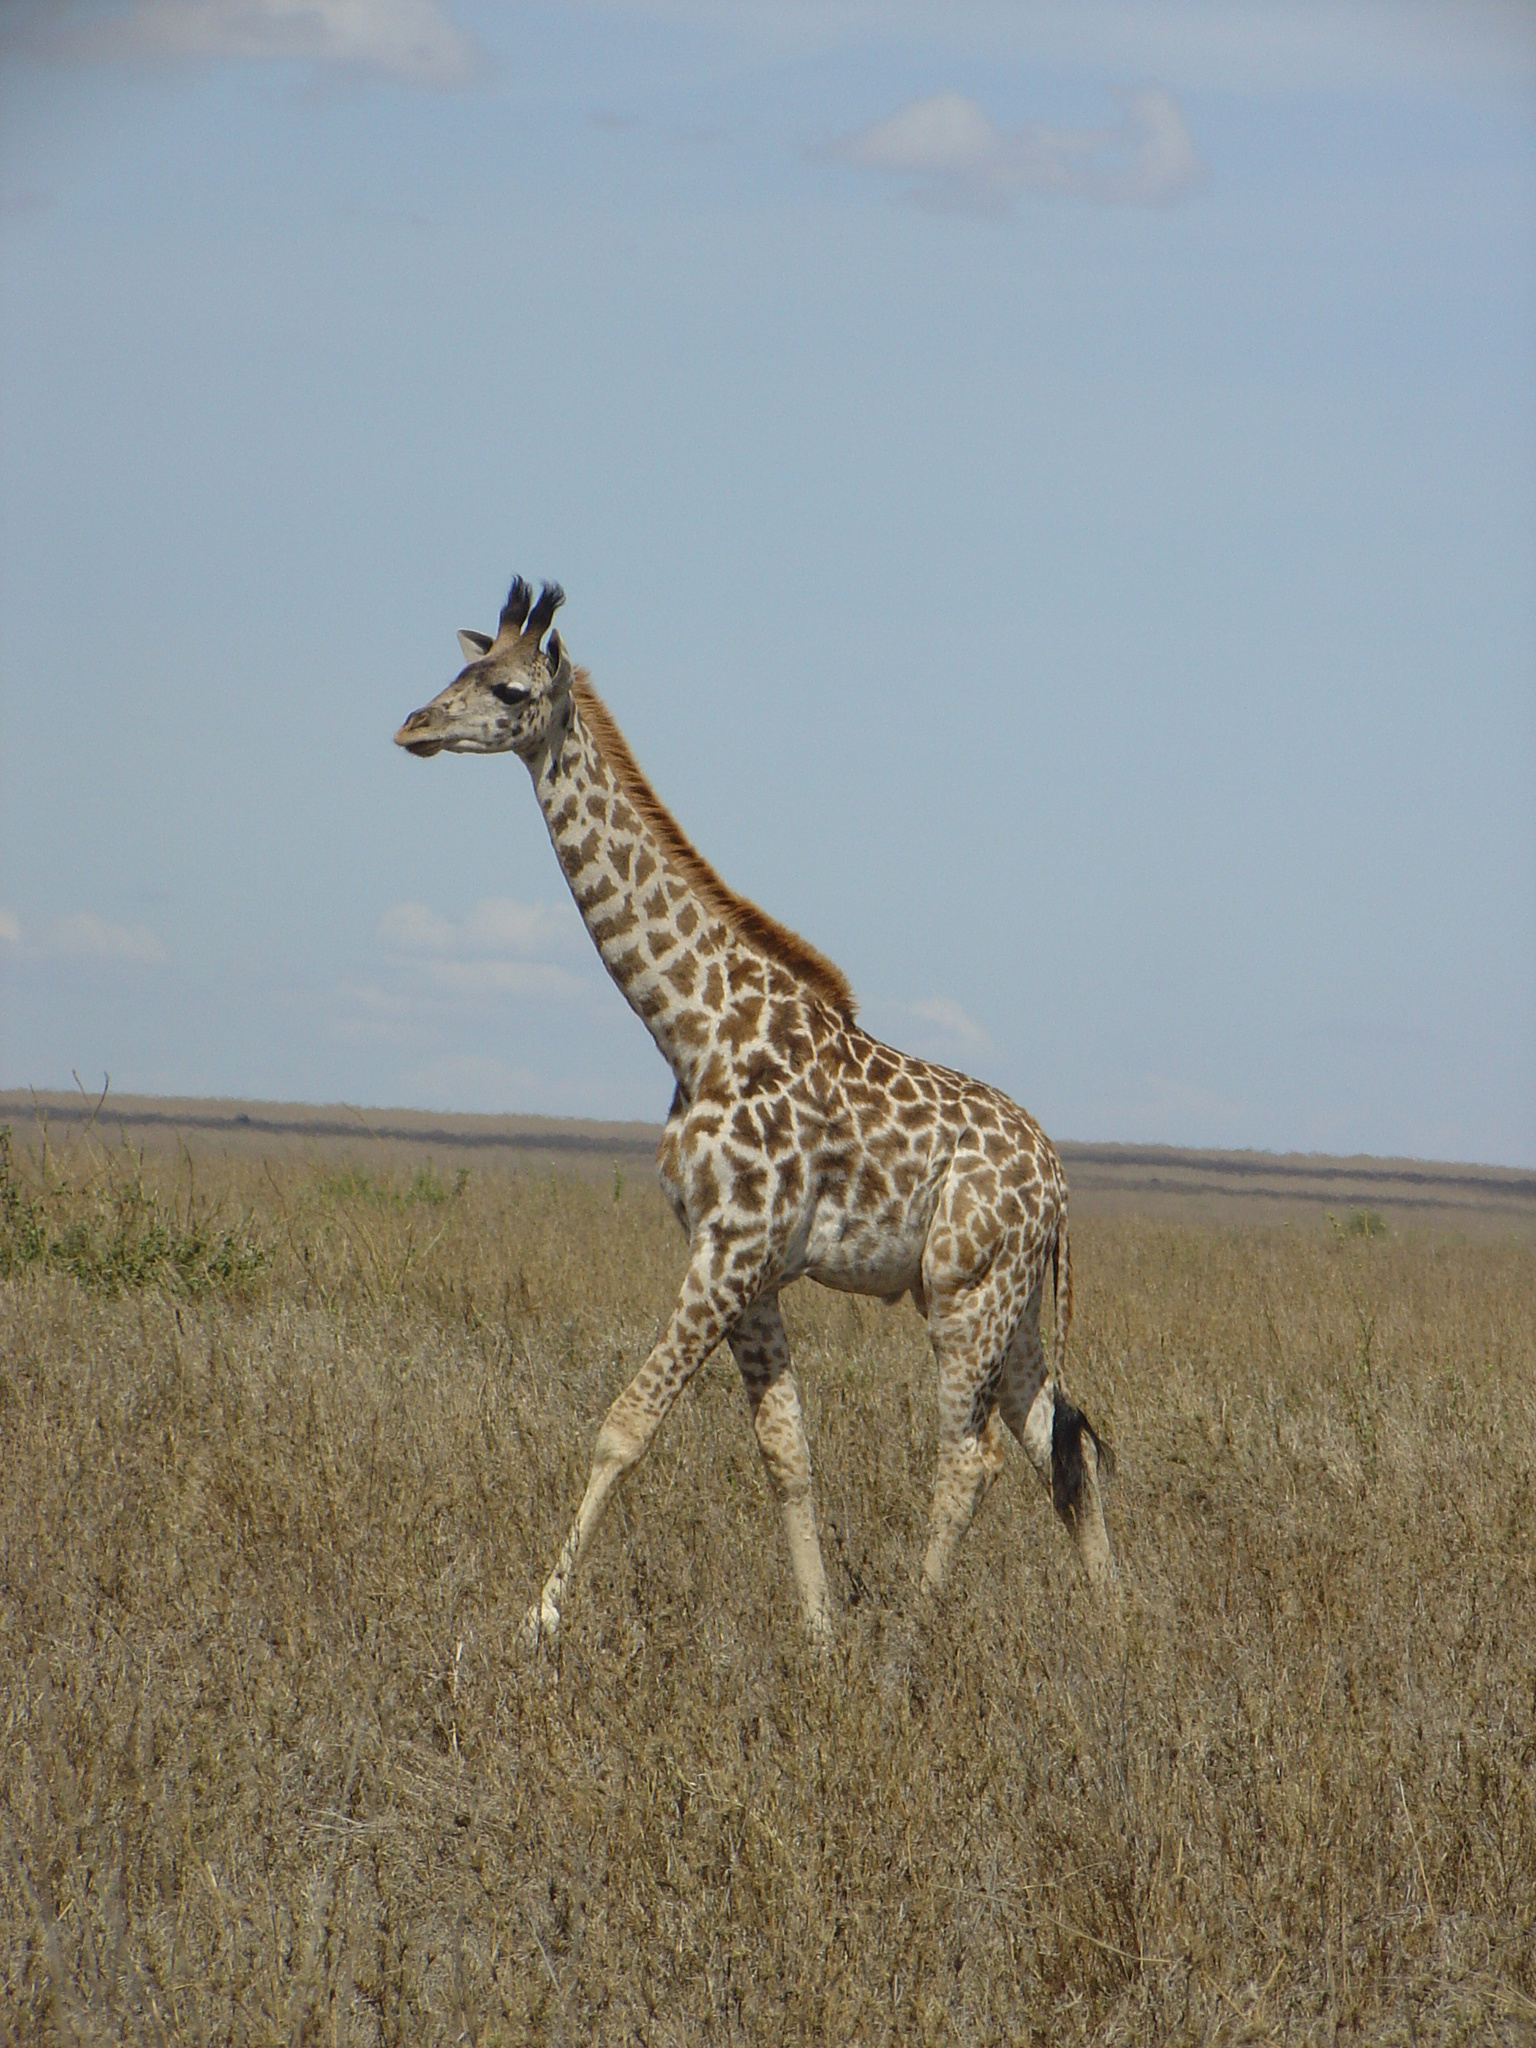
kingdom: Animalia
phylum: Chordata
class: Mammalia
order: Artiodactyla
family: Giraffidae
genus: Giraffa
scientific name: Giraffa tippelskirchi
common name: Masai giraffe
